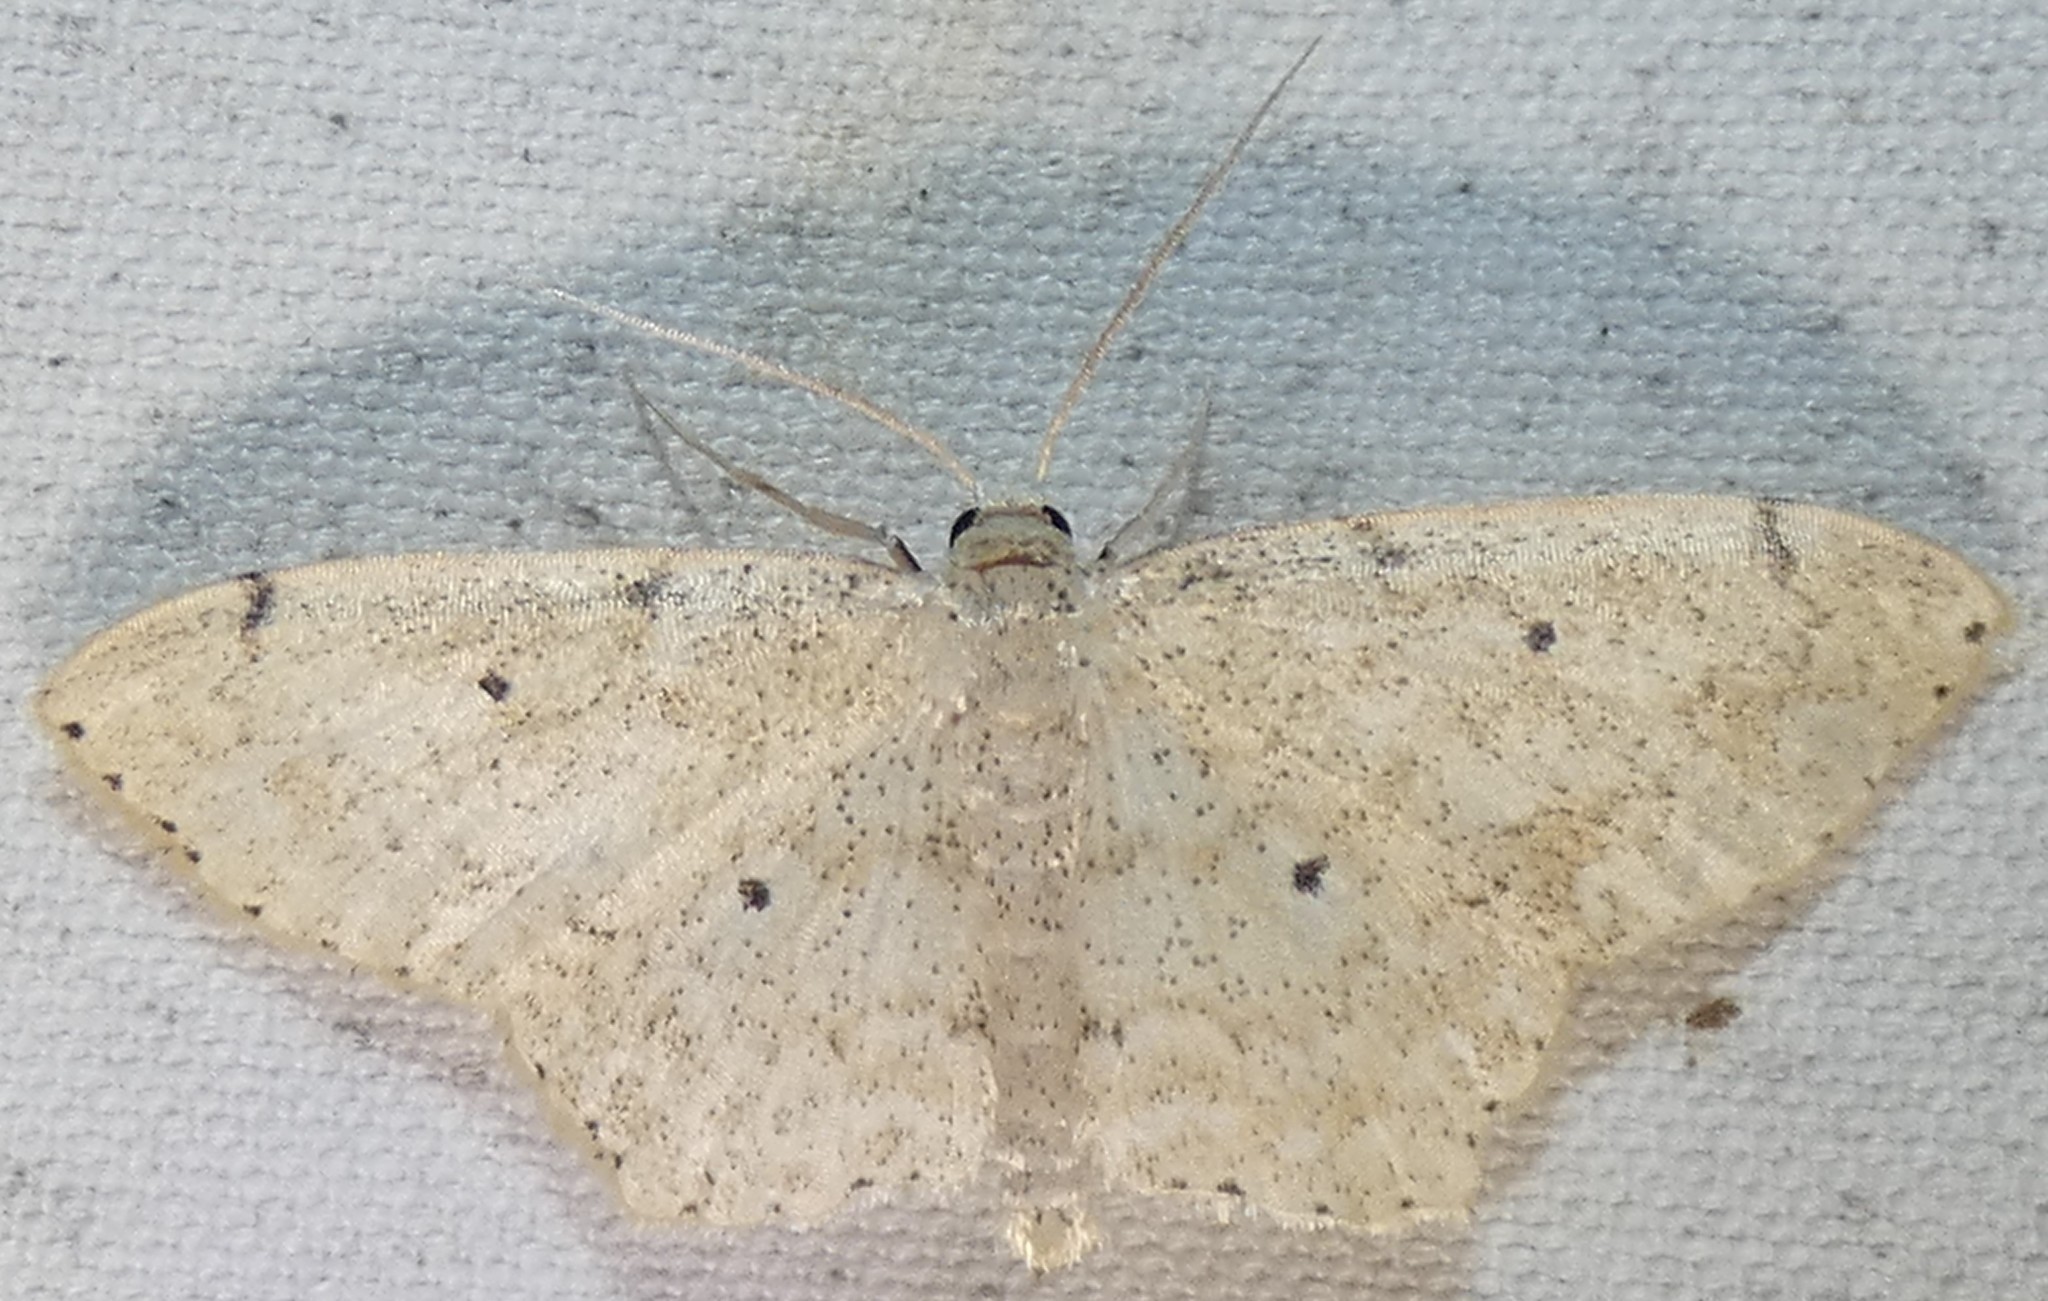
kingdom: Animalia
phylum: Arthropoda
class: Insecta
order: Lepidoptera
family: Geometridae
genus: Scopula
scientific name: Scopula compensata
